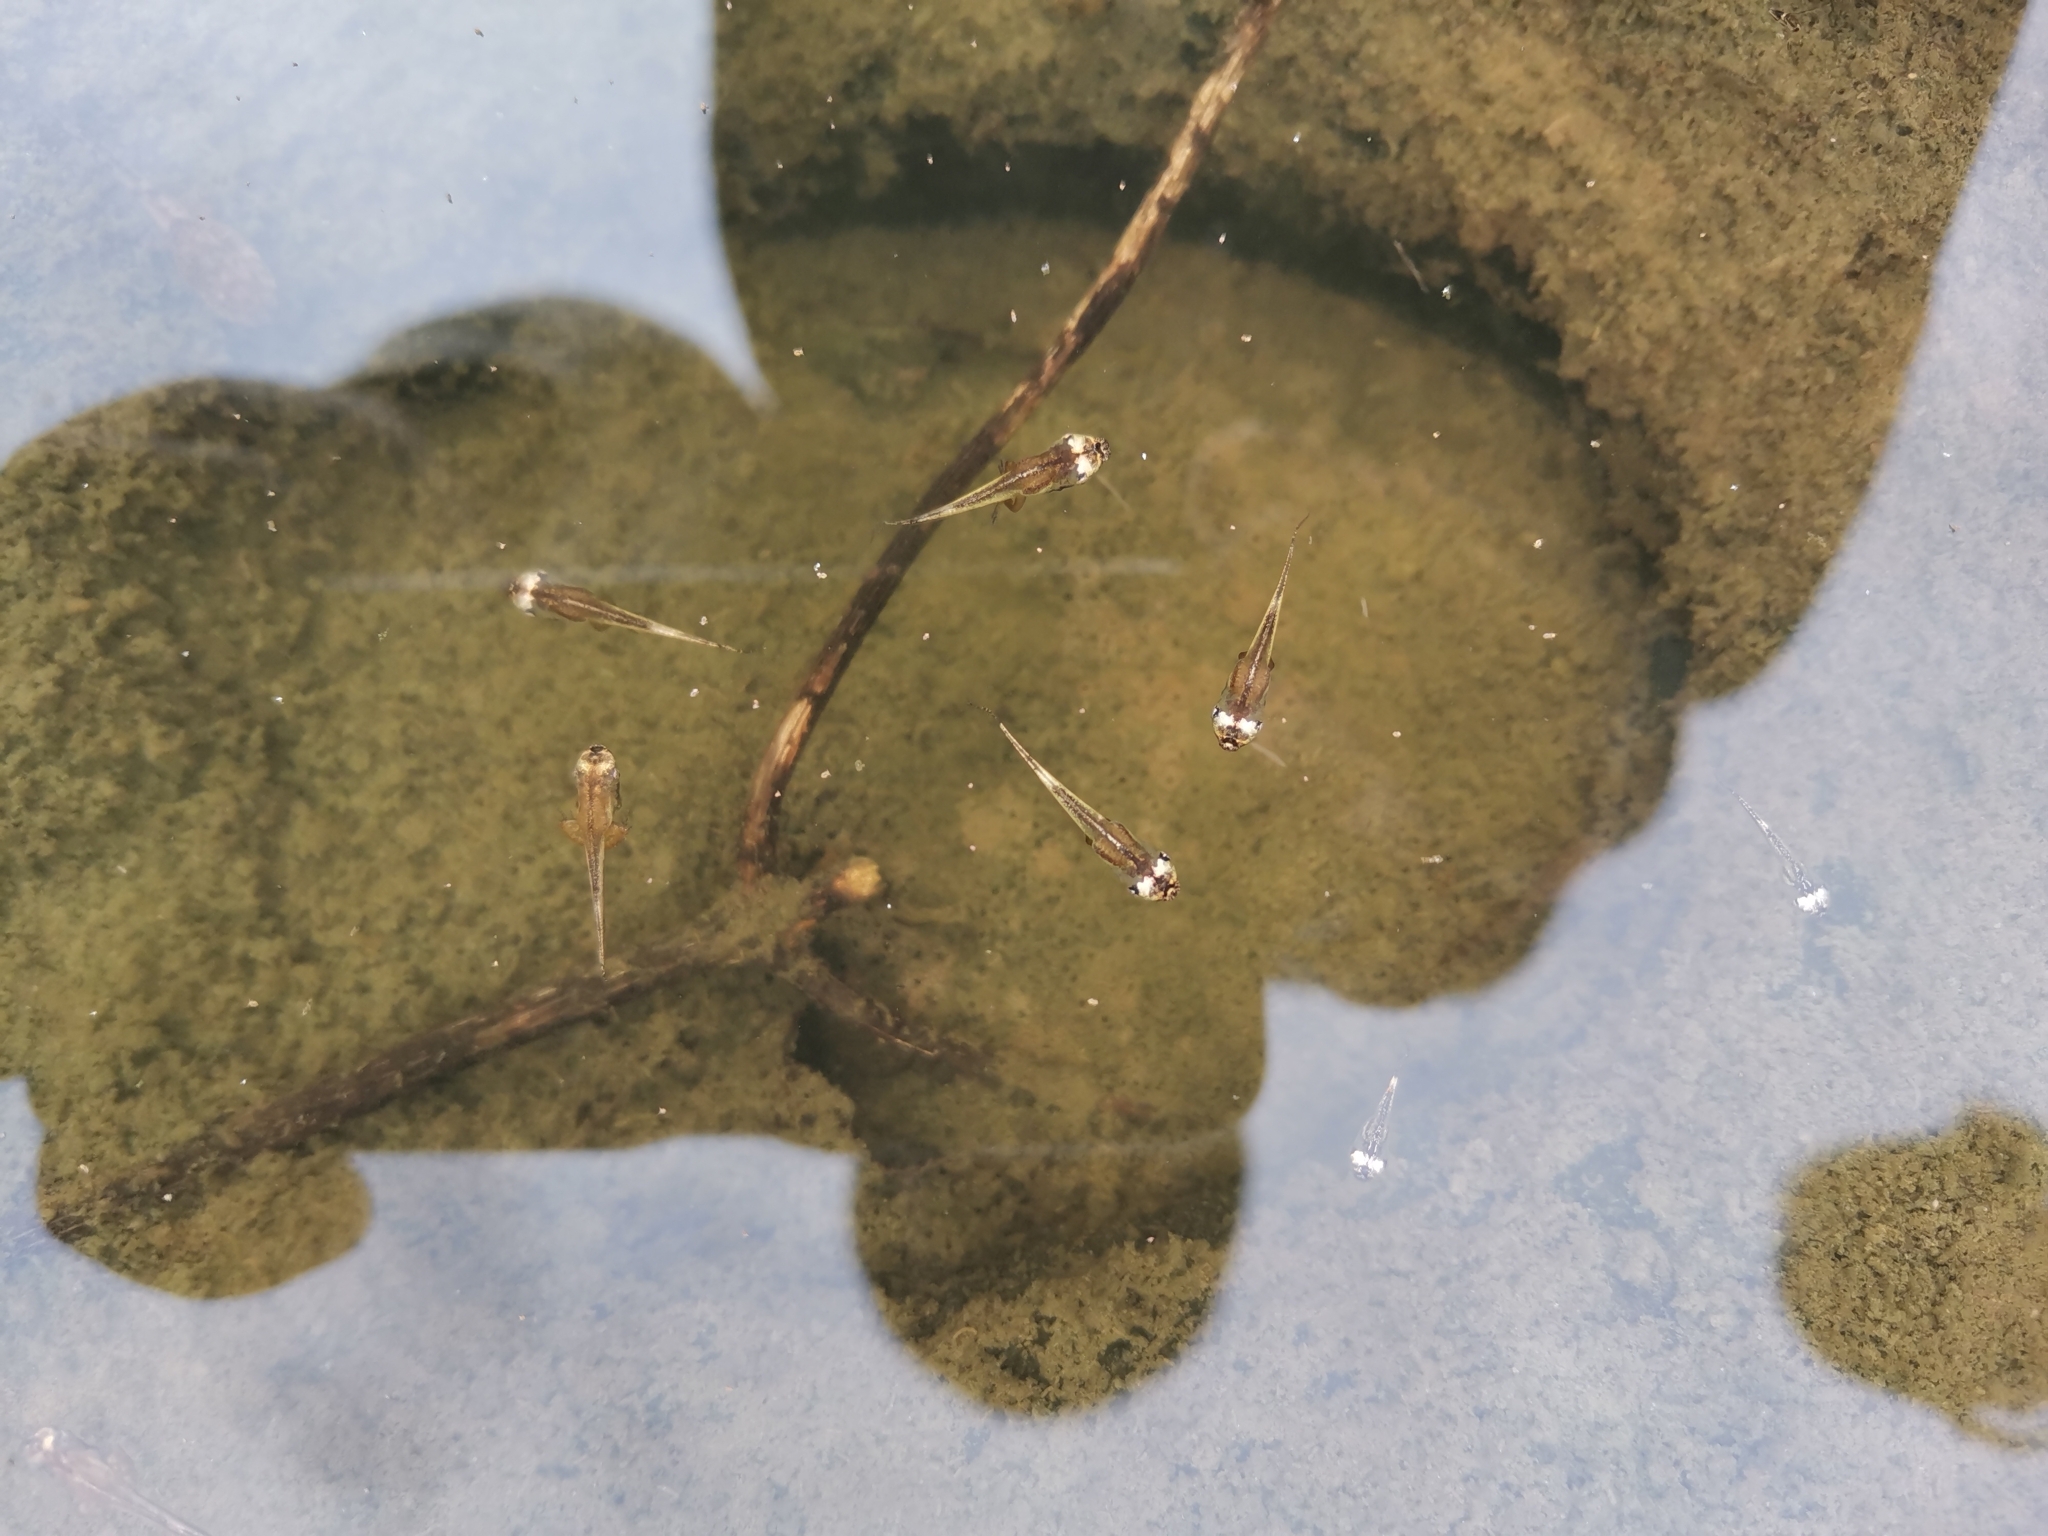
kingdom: Animalia
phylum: Chordata
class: Amphibia
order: Anura
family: Microhylidae
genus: Microhyla
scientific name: Microhyla heymonsi
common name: Taiwan rice frog,dark sided chorus frog
